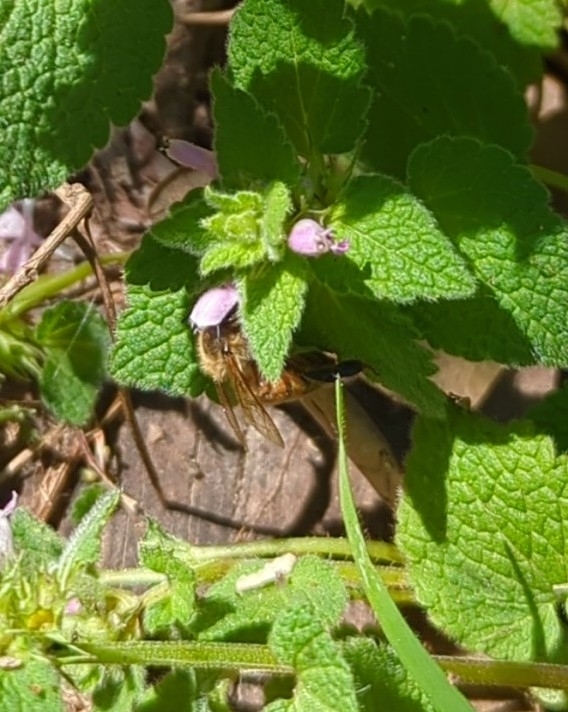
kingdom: Animalia
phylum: Arthropoda
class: Insecta
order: Hymenoptera
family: Apidae
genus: Apis
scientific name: Apis mellifera
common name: Honey bee
